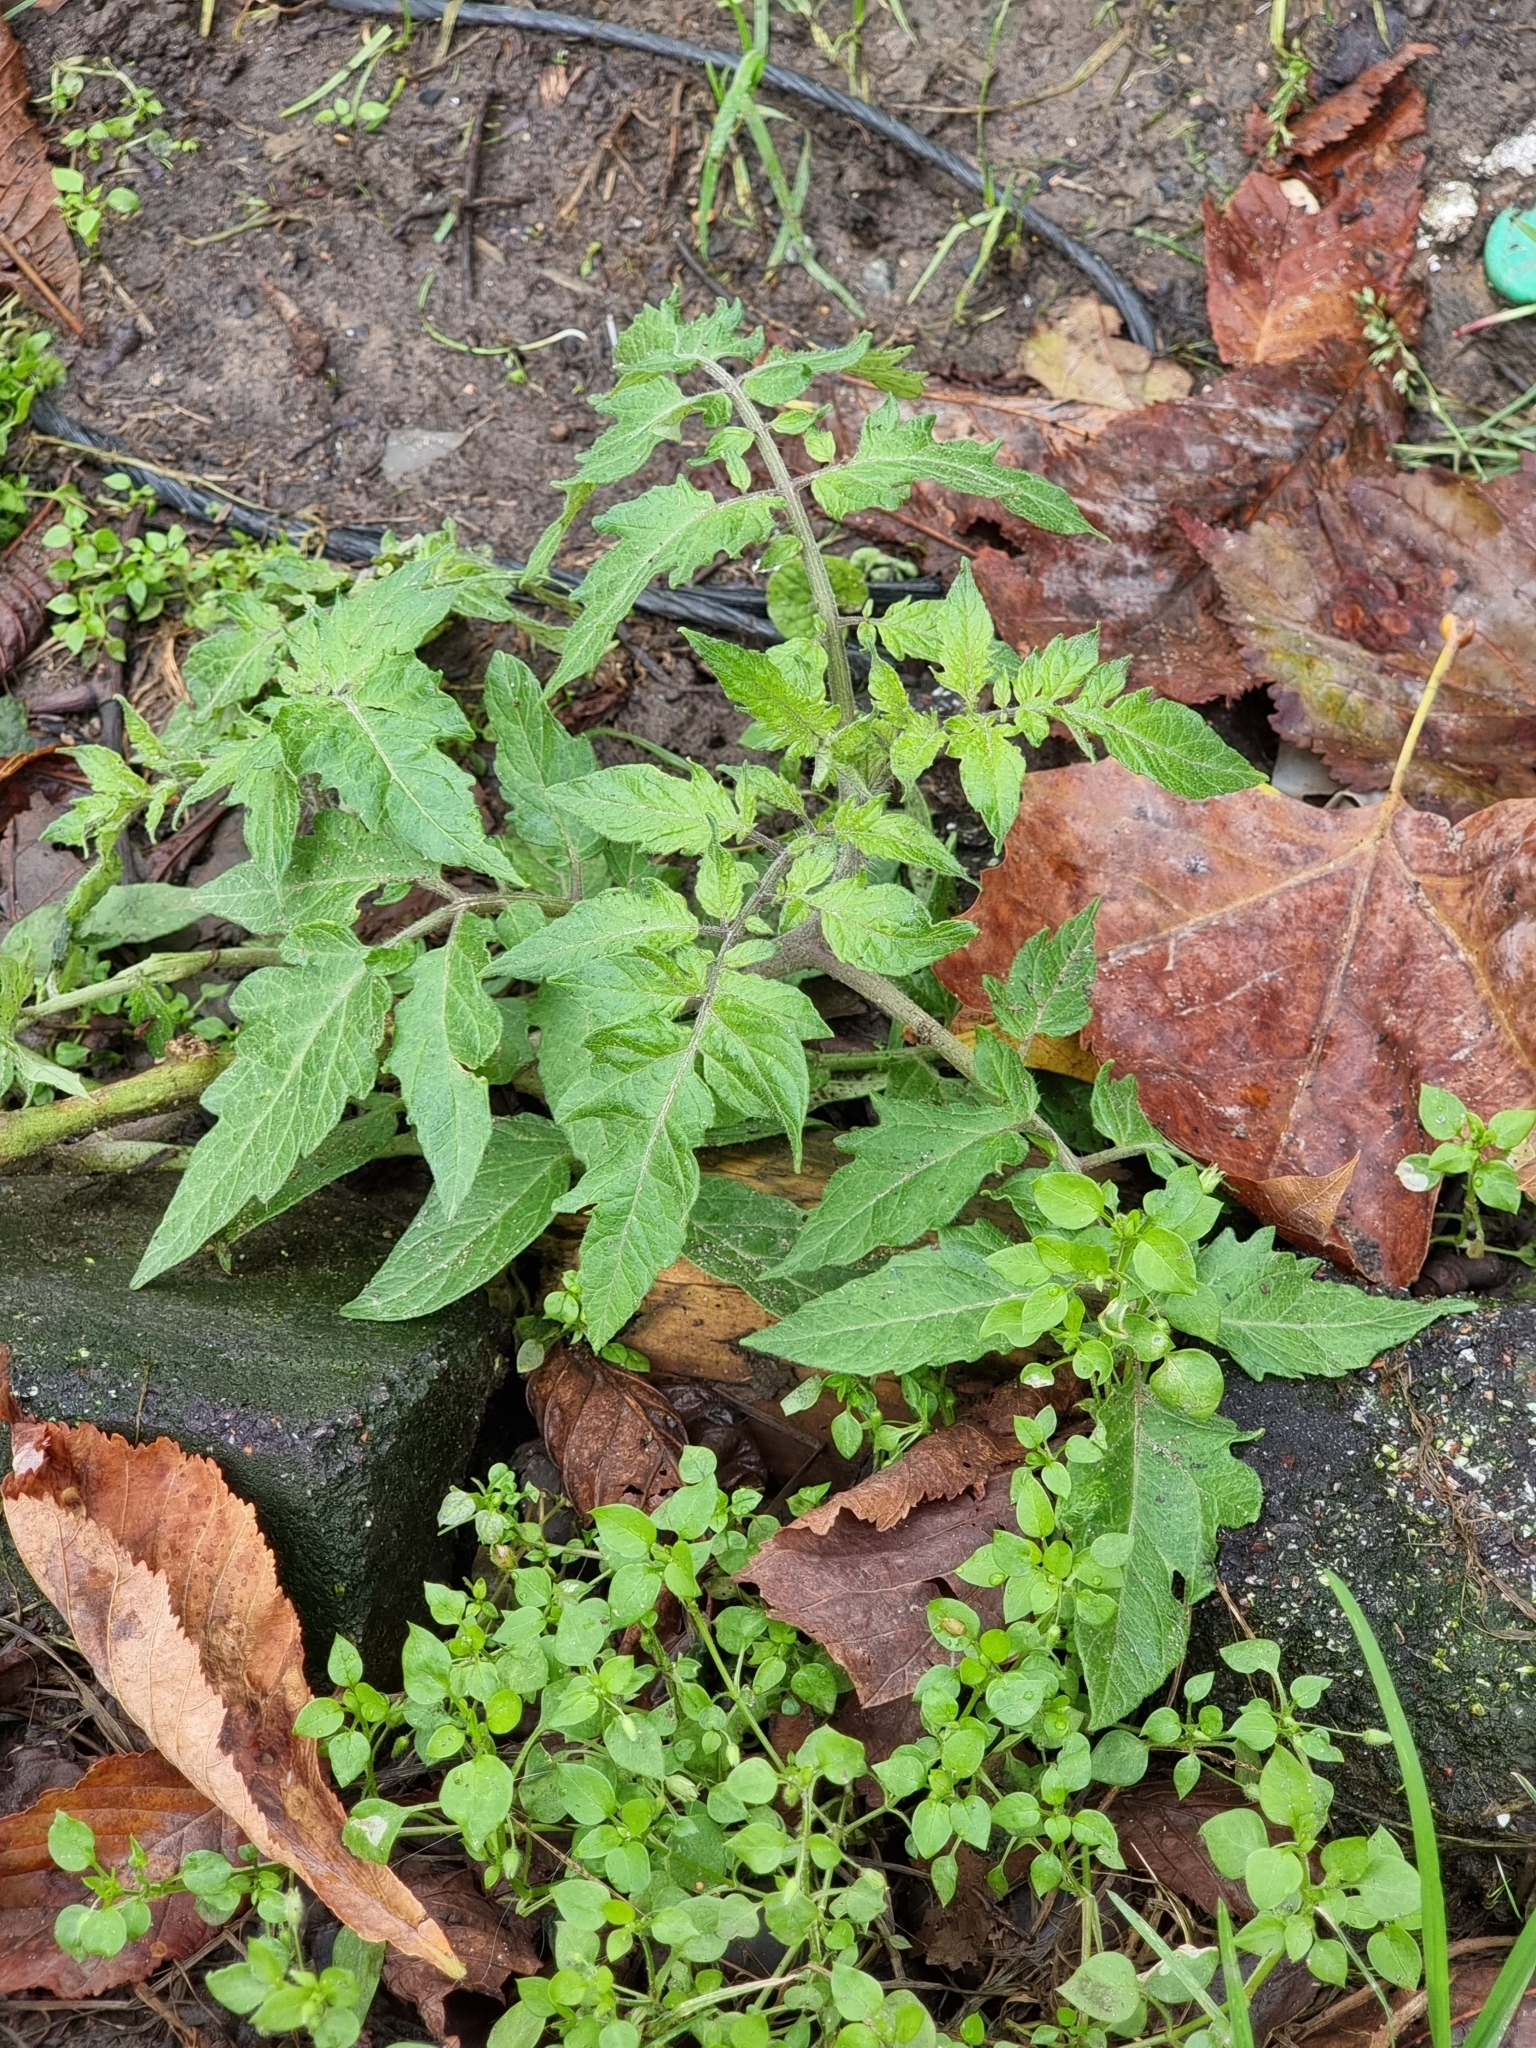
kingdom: Plantae
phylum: Tracheophyta
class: Magnoliopsida
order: Solanales
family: Solanaceae
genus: Solanum
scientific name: Solanum lycopersicum
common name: Garden tomato
